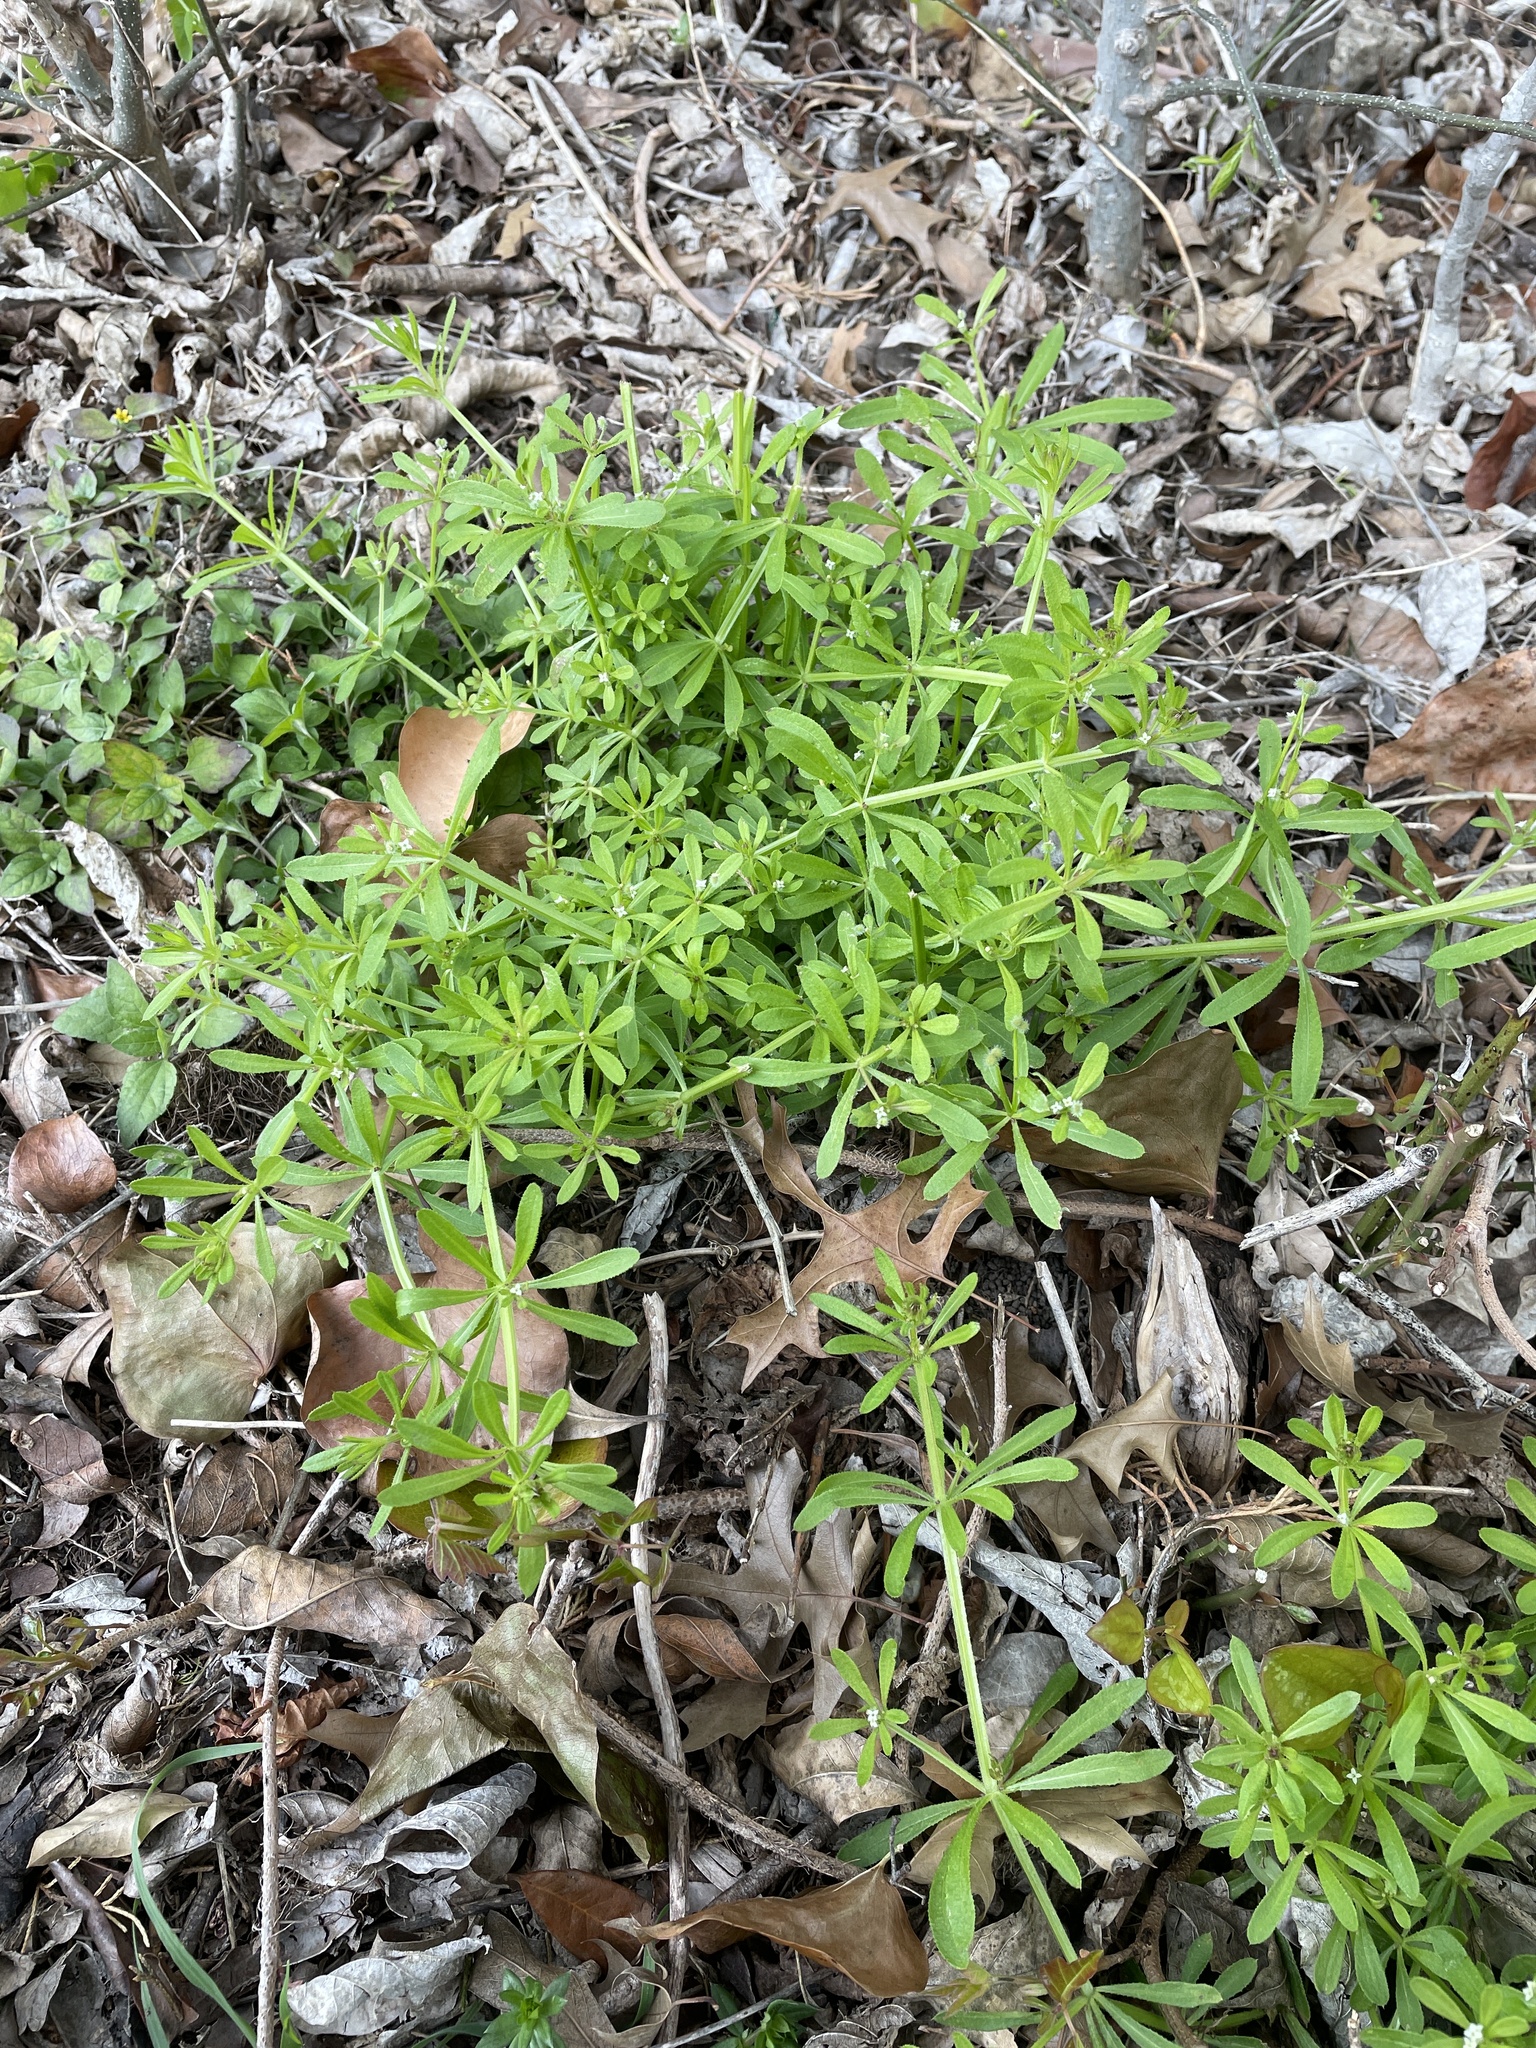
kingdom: Plantae
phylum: Tracheophyta
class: Magnoliopsida
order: Gentianales
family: Rubiaceae
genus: Galium
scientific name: Galium aparine
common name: Cleavers
